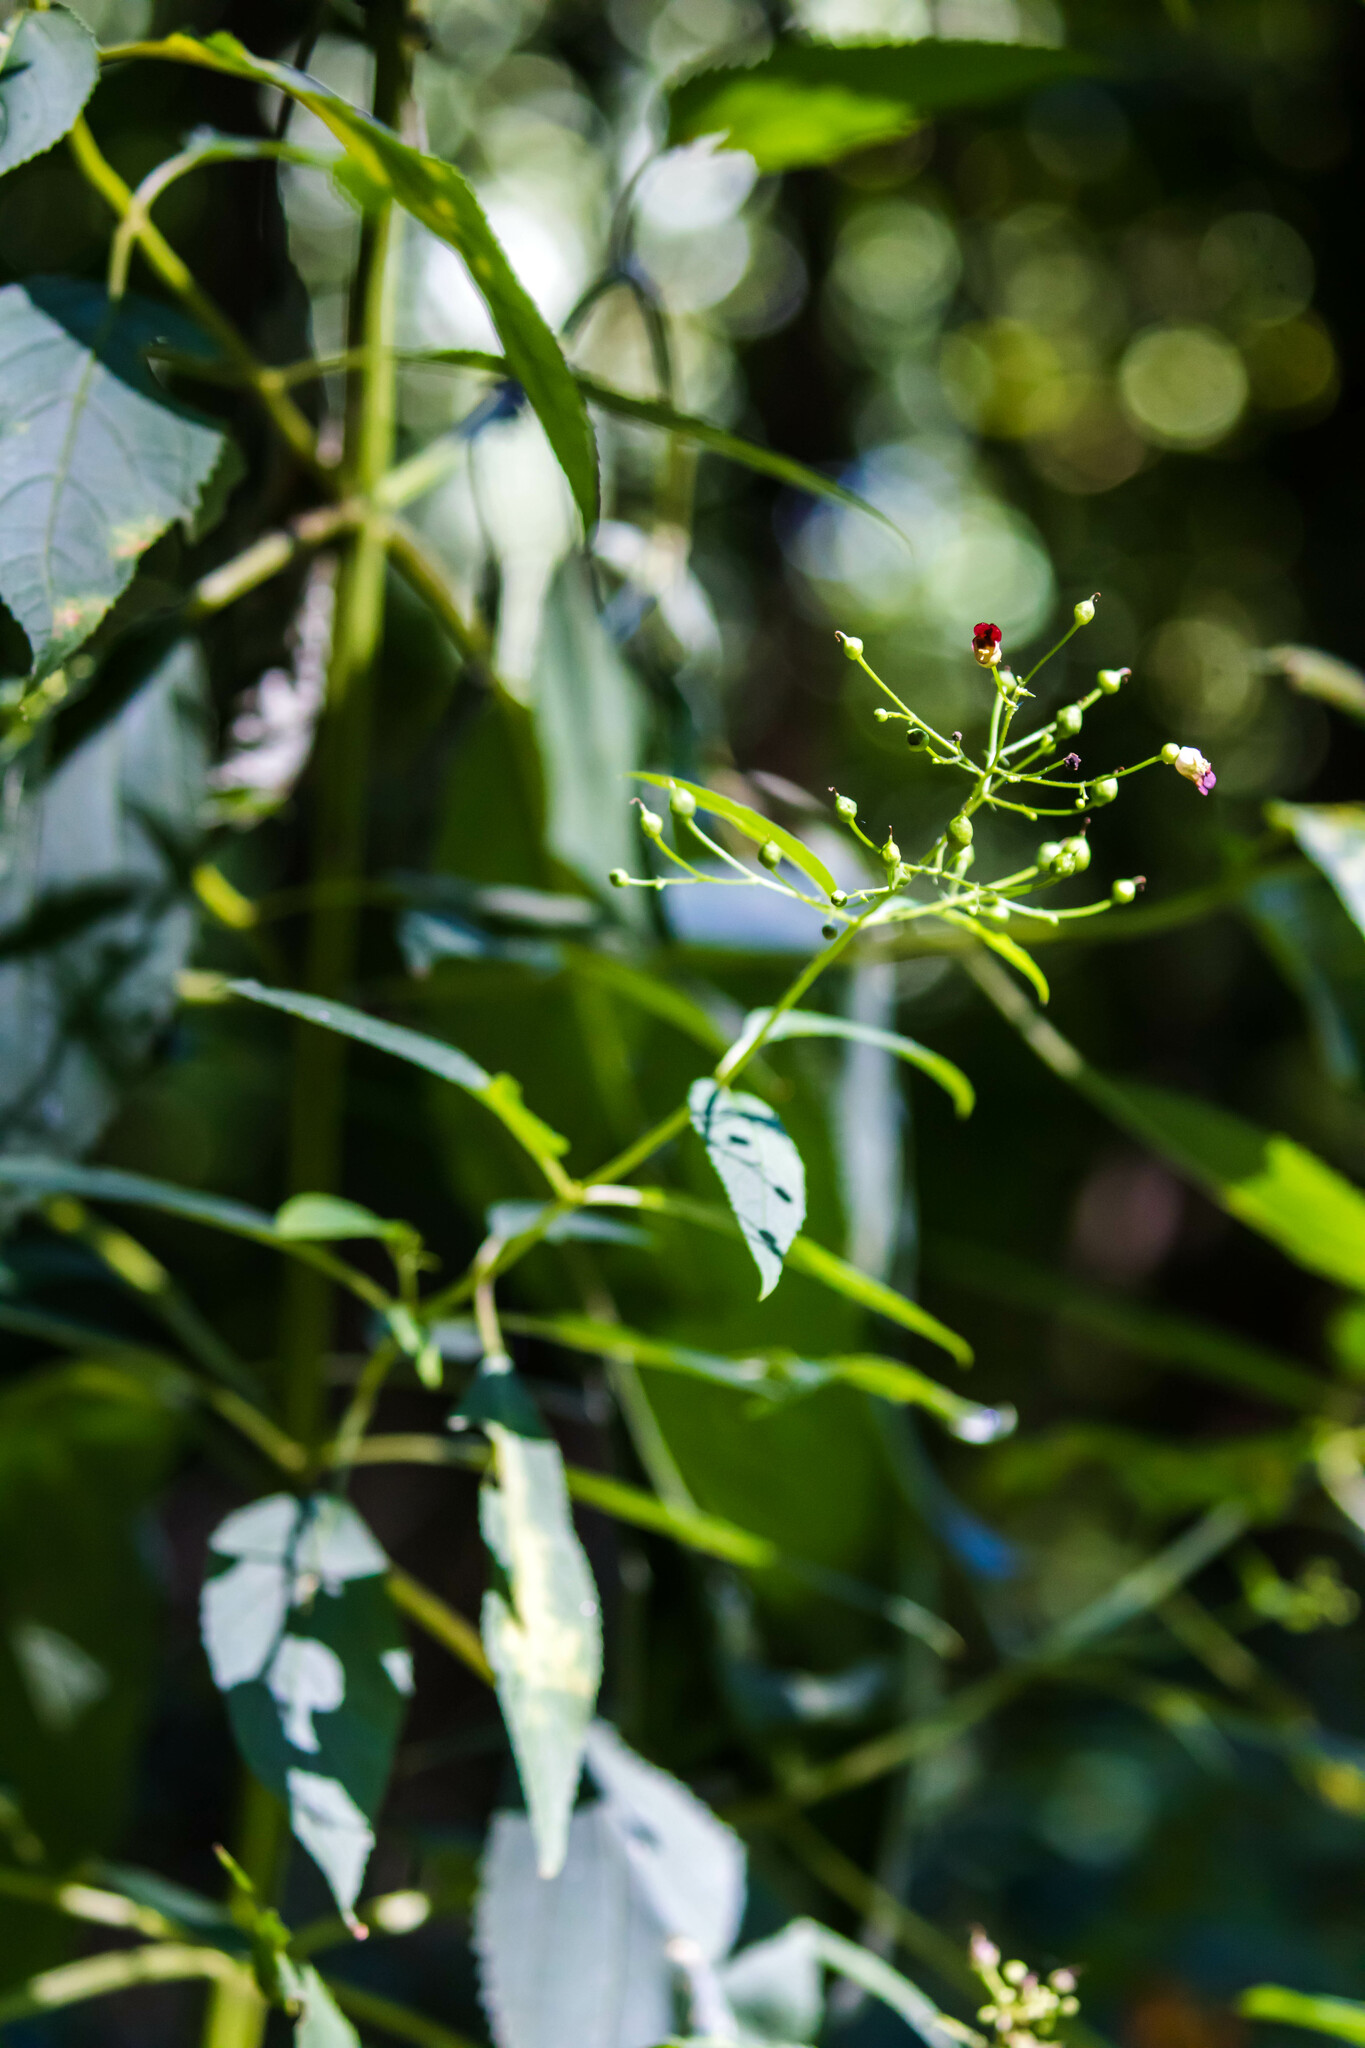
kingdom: Plantae
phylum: Tracheophyta
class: Magnoliopsida
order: Lamiales
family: Scrophulariaceae
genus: Scrophularia
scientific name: Scrophularia marilandica
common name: Eastern figwort
